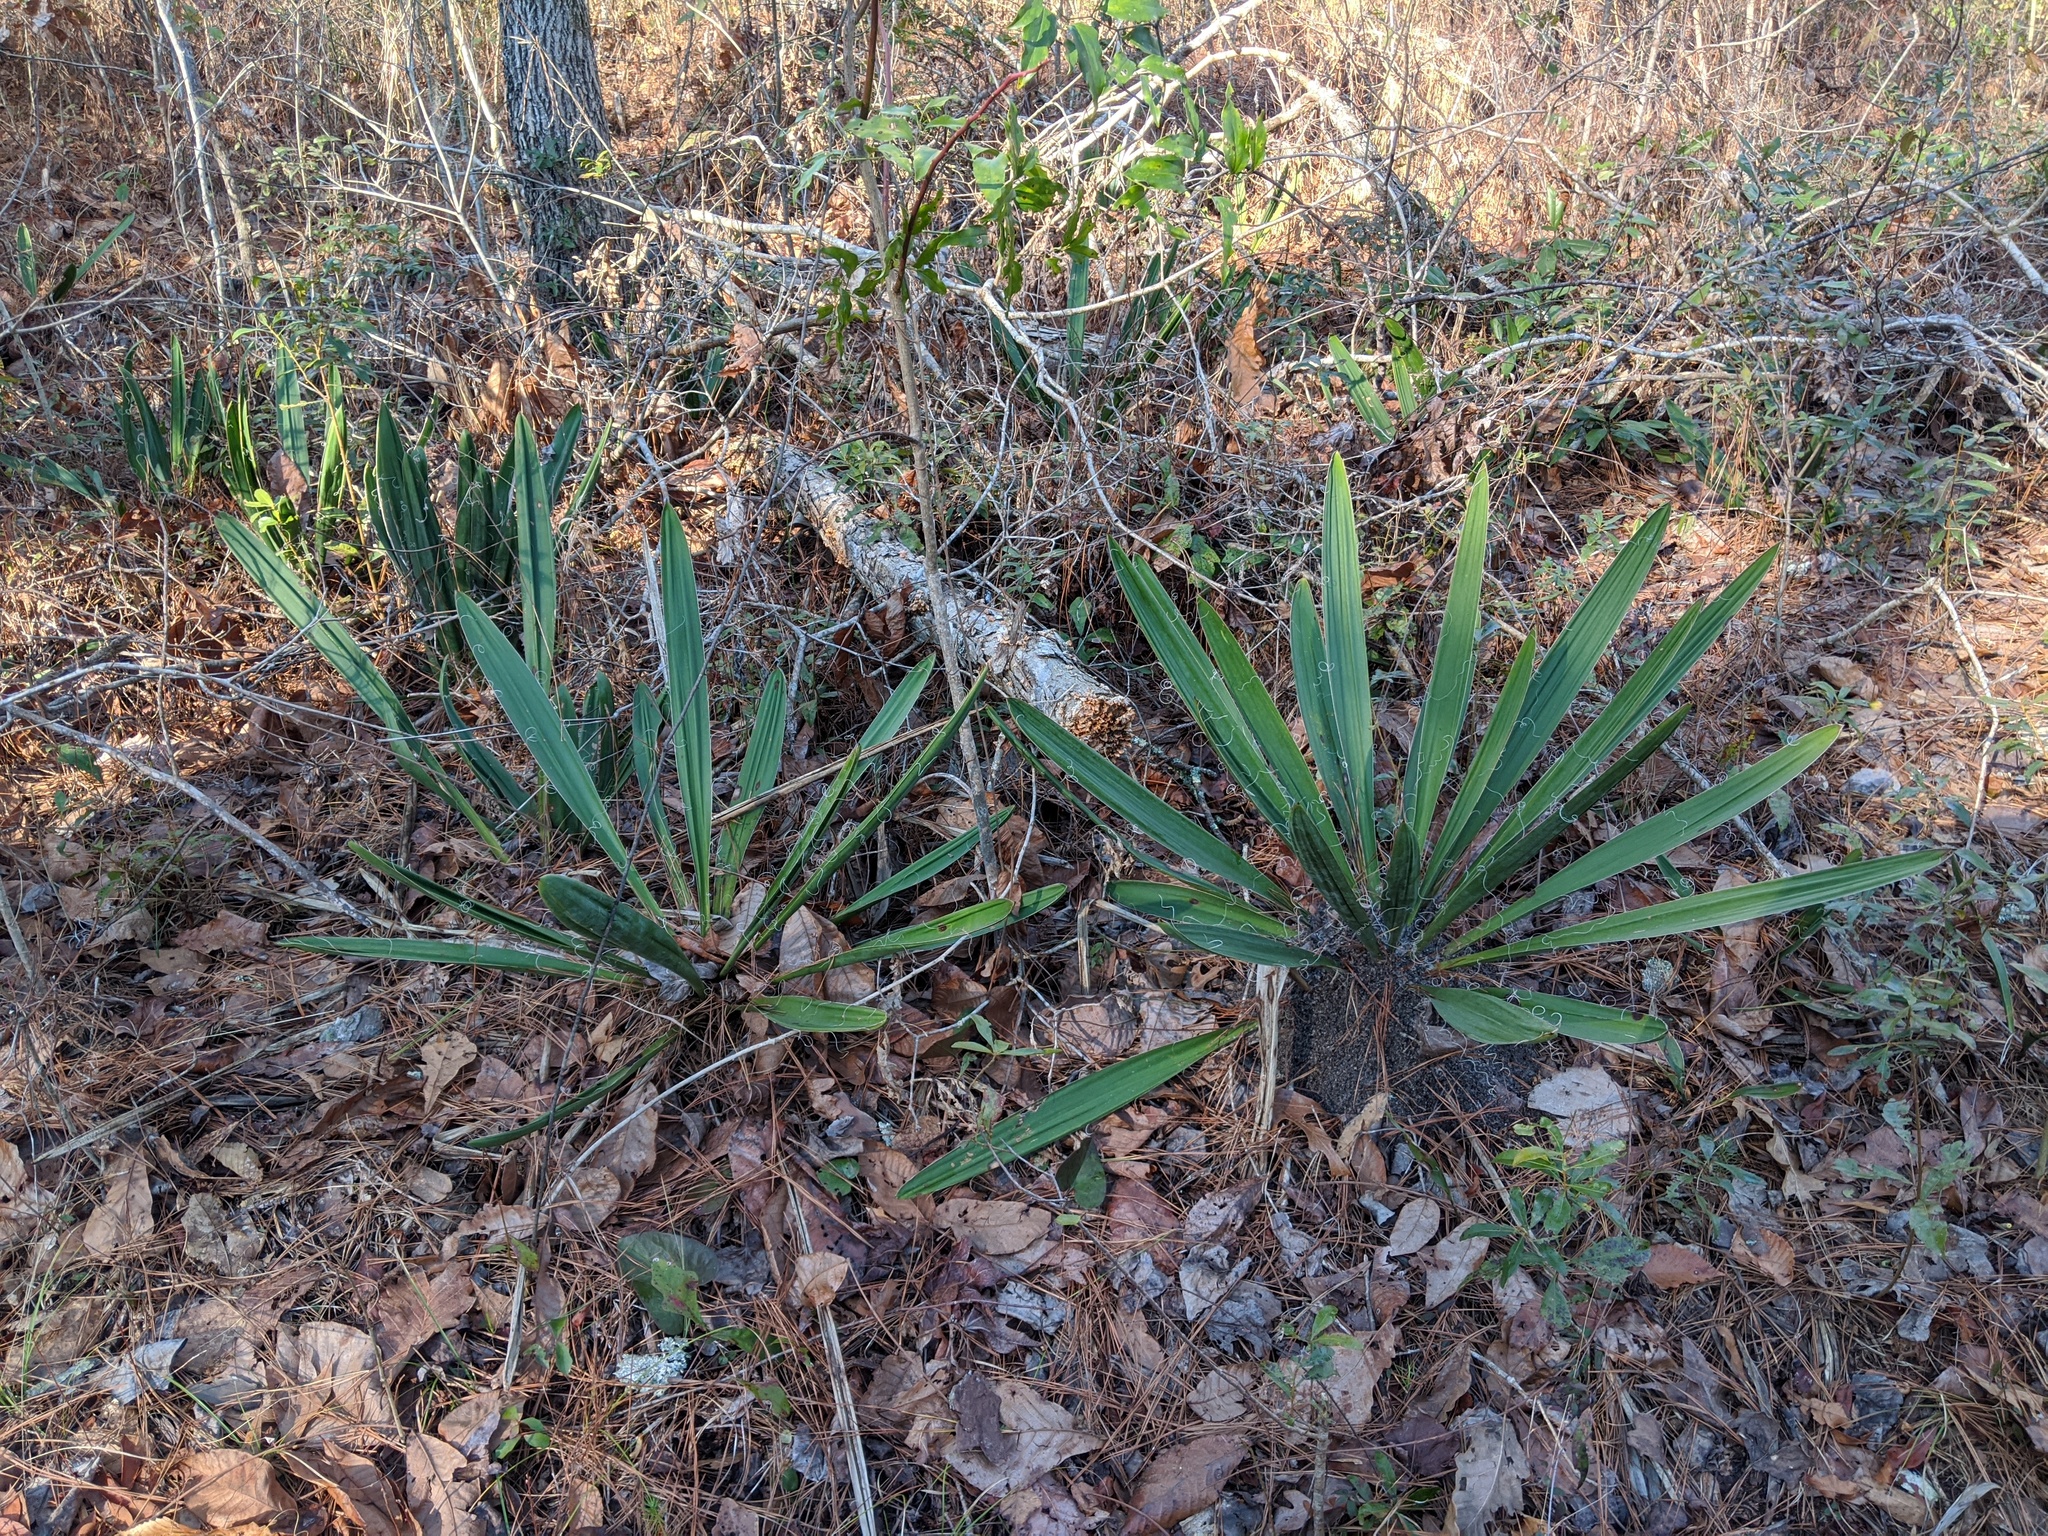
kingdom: Plantae
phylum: Tracheophyta
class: Liliopsida
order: Asparagales
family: Asparagaceae
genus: Yucca
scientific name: Yucca filamentosa
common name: Adam's-needle
